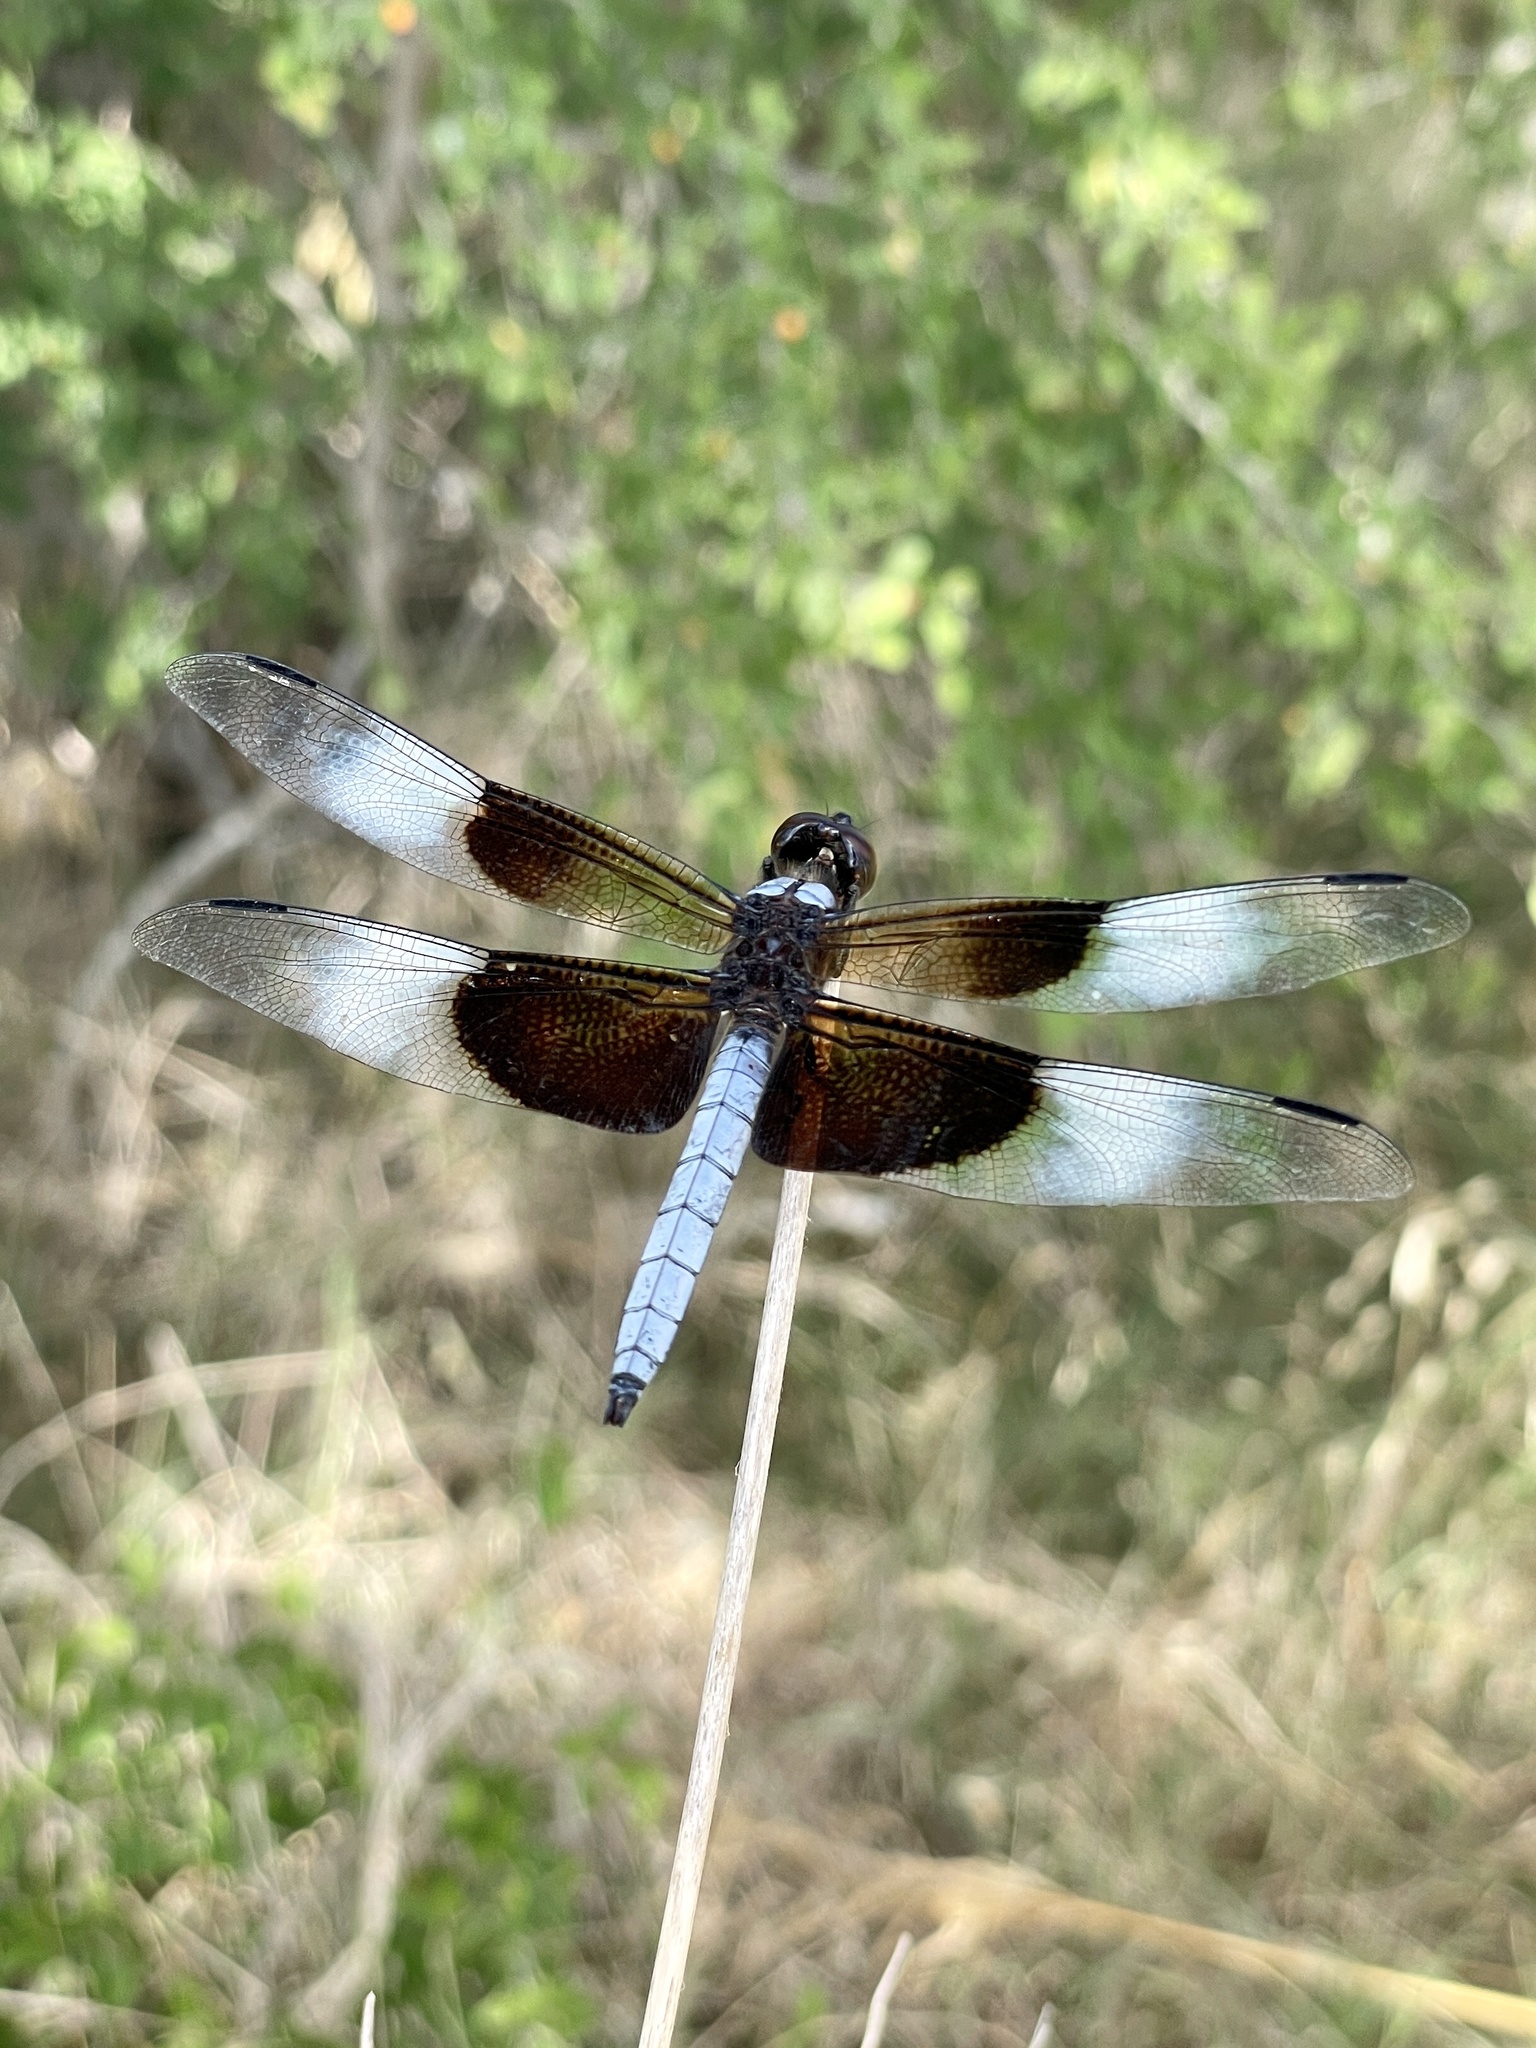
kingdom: Animalia
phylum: Arthropoda
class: Insecta
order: Odonata
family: Libellulidae
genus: Libellula
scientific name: Libellula luctuosa
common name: Widow skimmer
